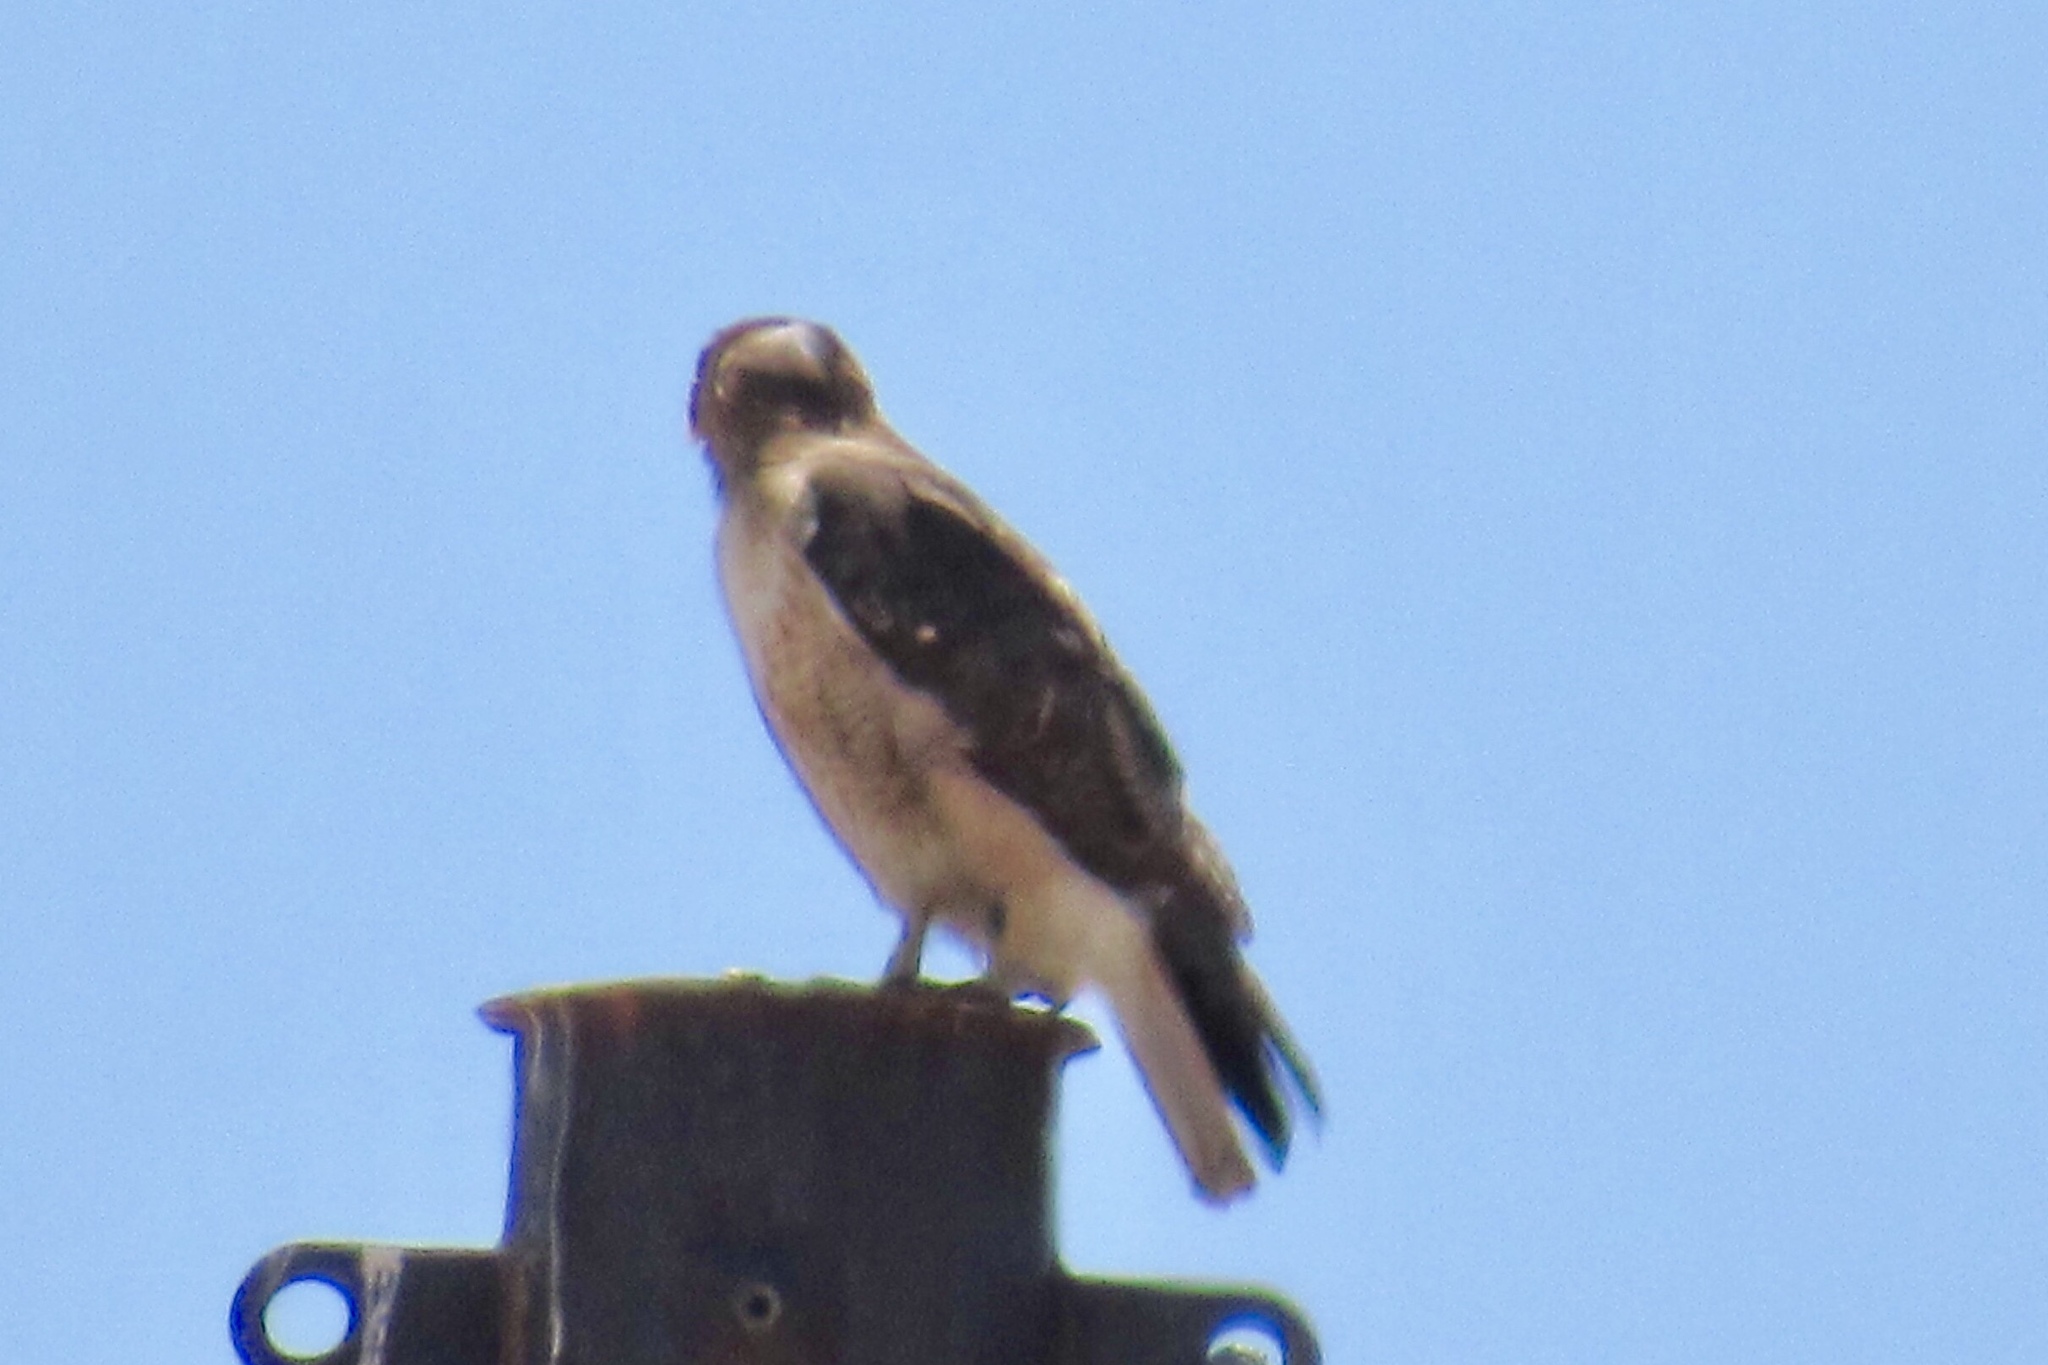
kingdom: Animalia
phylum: Chordata
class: Aves
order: Accipitriformes
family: Accipitridae
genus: Buteo
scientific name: Buteo jamaicensis
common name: Red-tailed hawk
